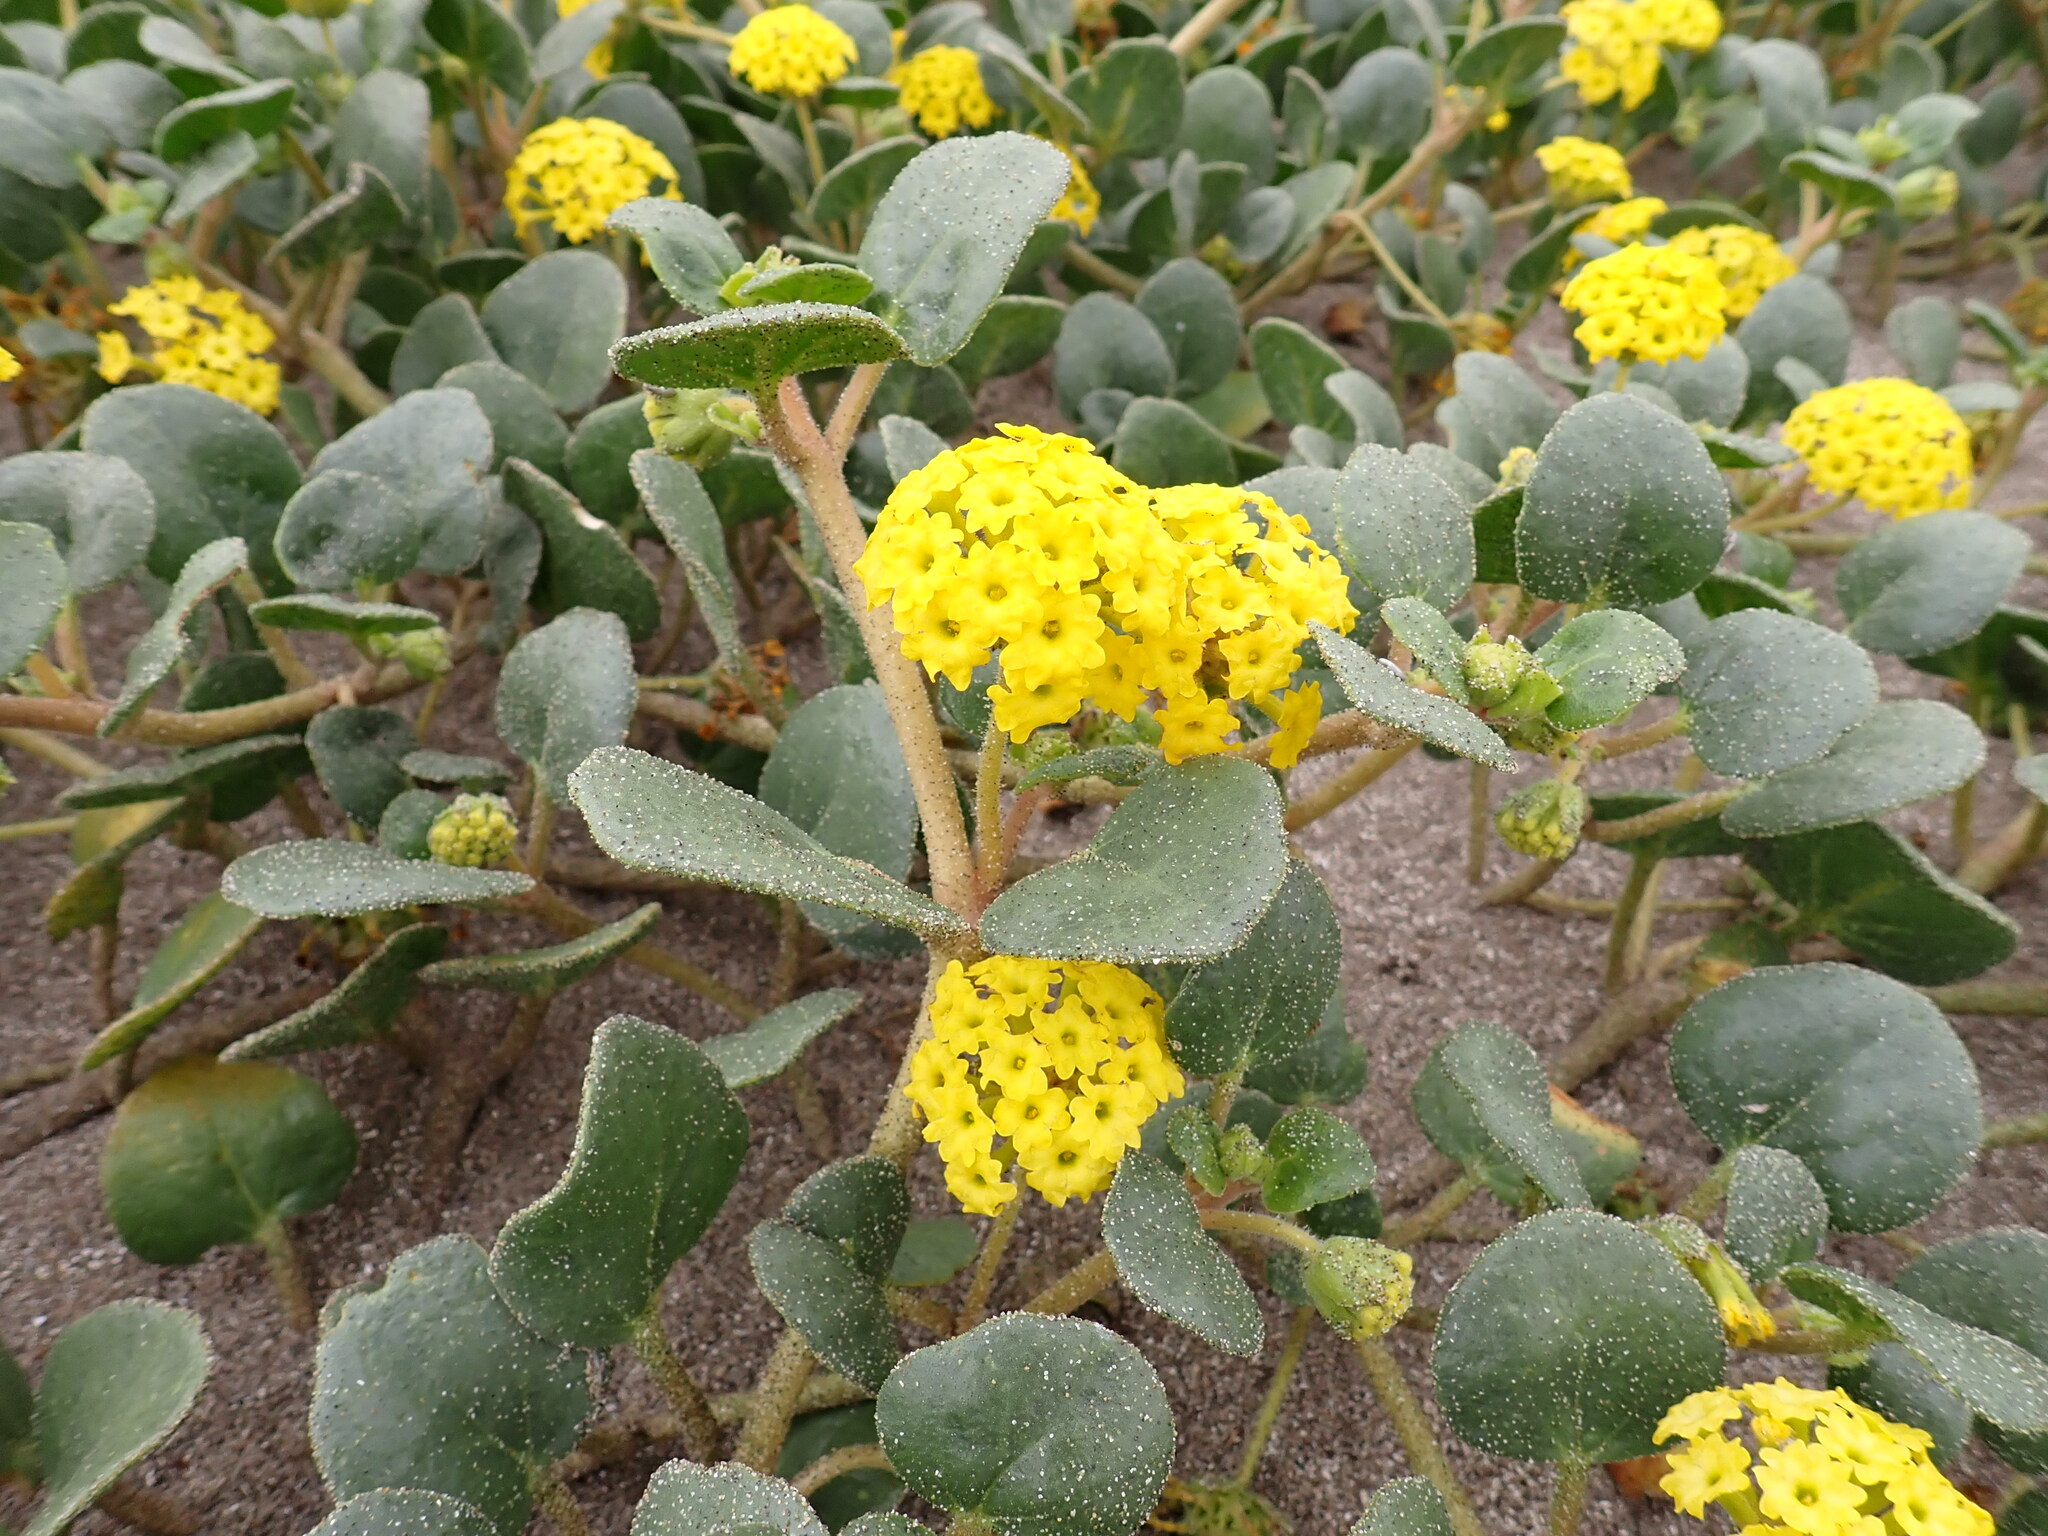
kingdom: Plantae
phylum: Tracheophyta
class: Magnoliopsida
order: Caryophyllales
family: Nyctaginaceae
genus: Abronia
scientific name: Abronia latifolia
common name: Yellow sand-verbena
